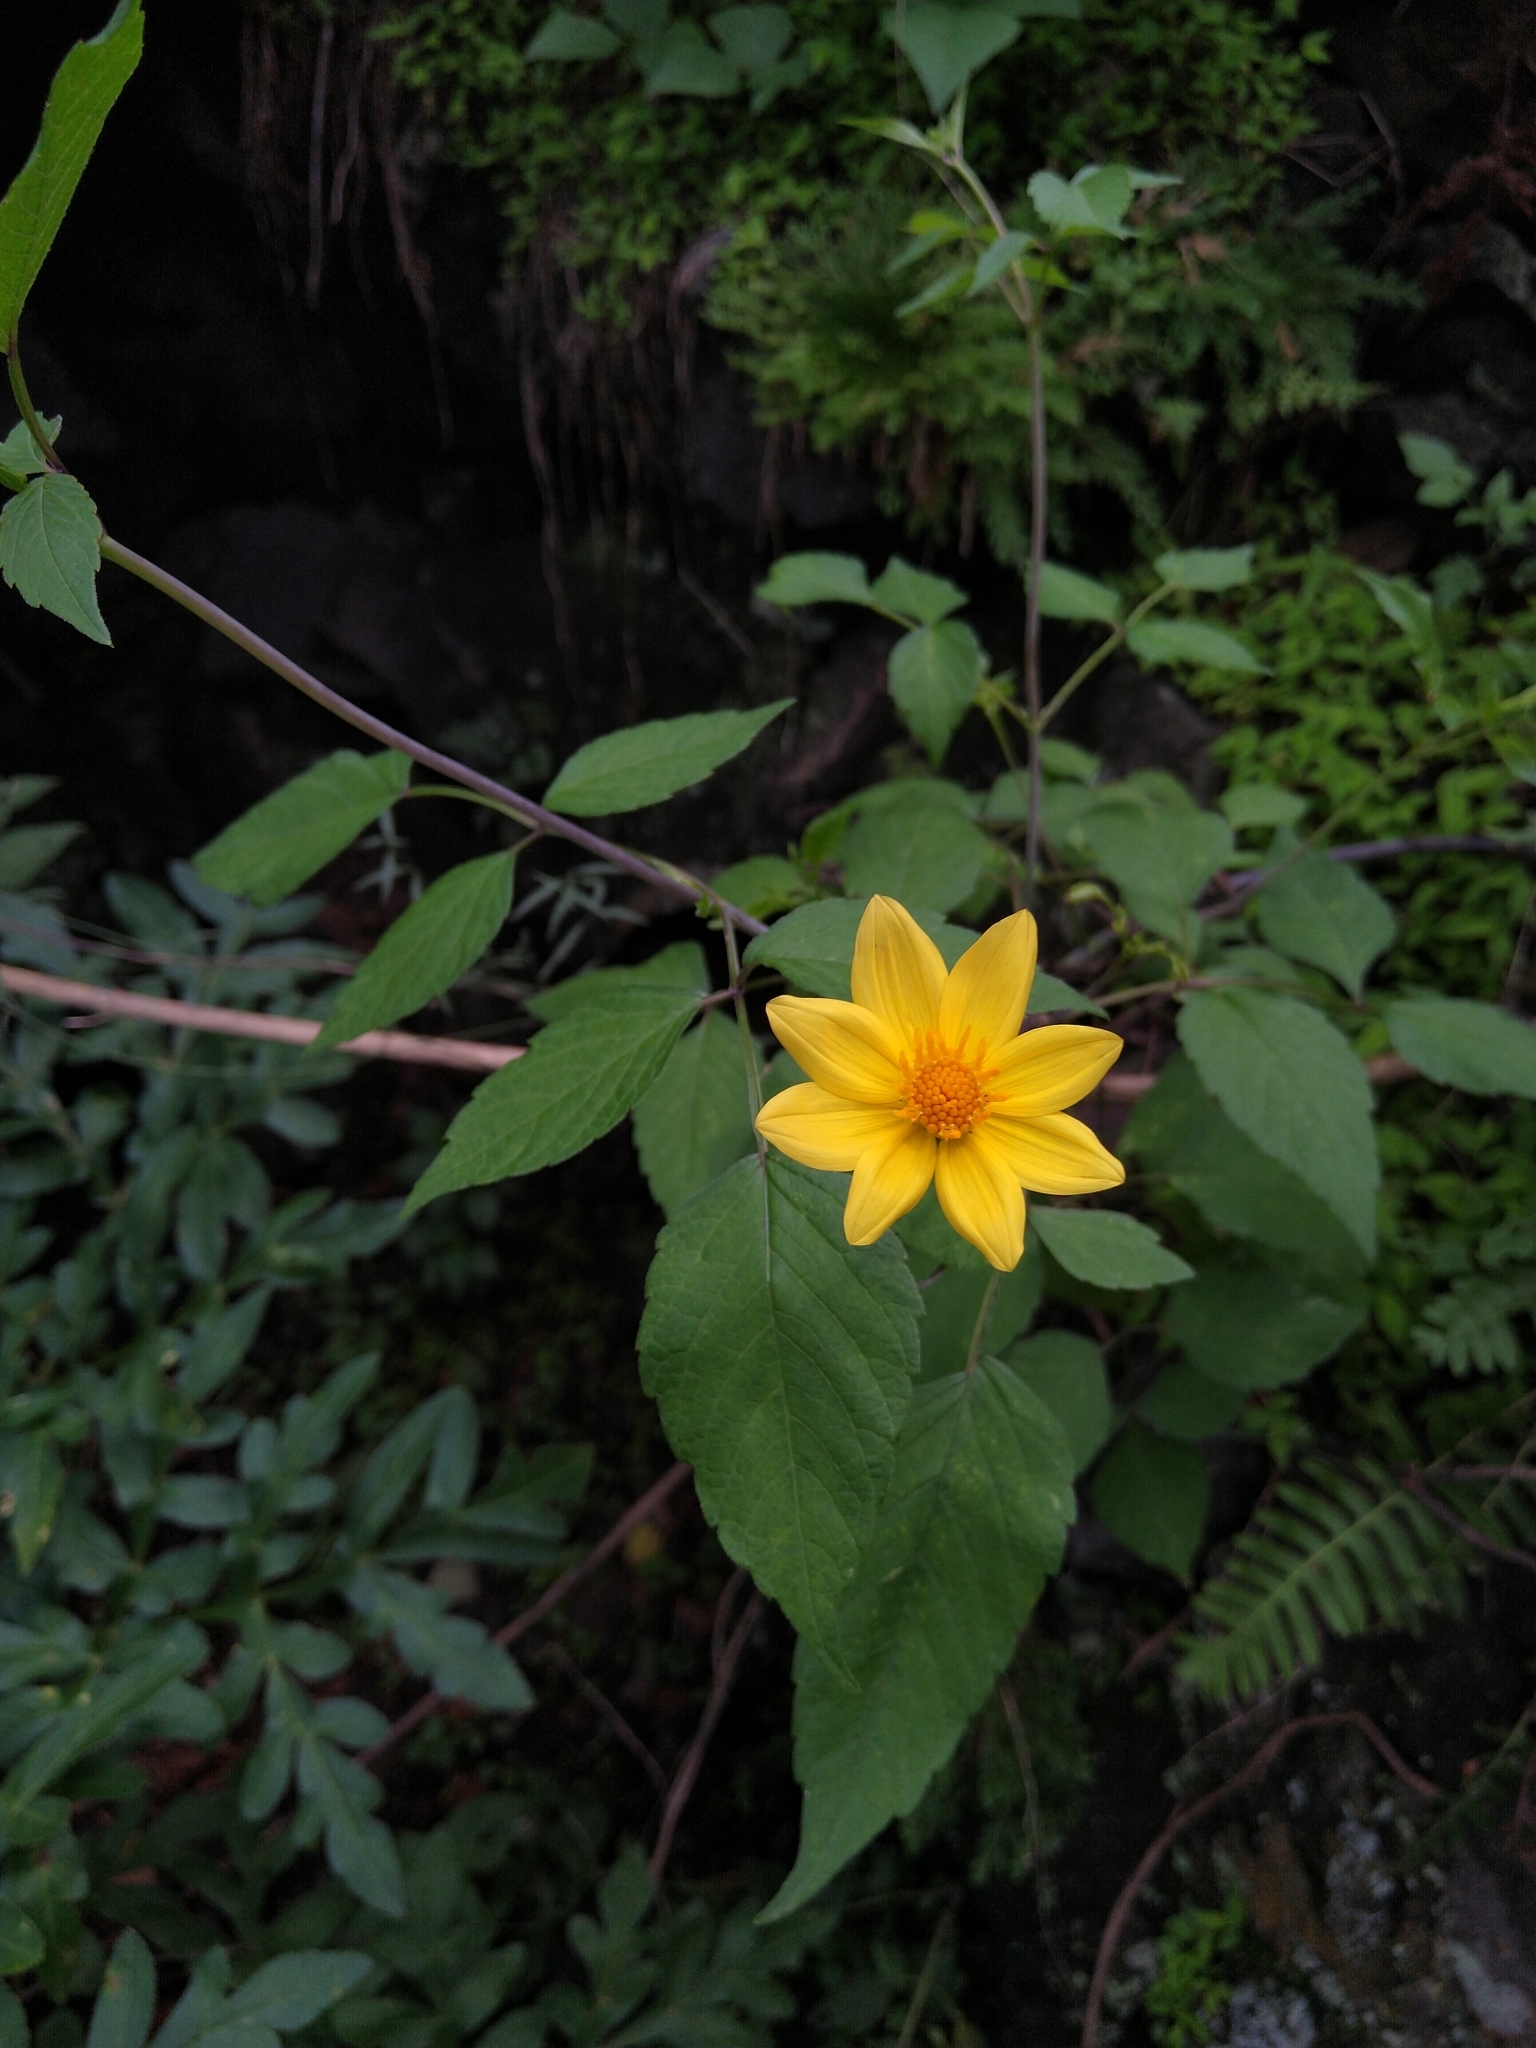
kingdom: Plantae
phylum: Tracheophyta
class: Magnoliopsida
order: Asterales
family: Asteraceae
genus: Dahlia
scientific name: Dahlia coccinea
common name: Red dahlia
